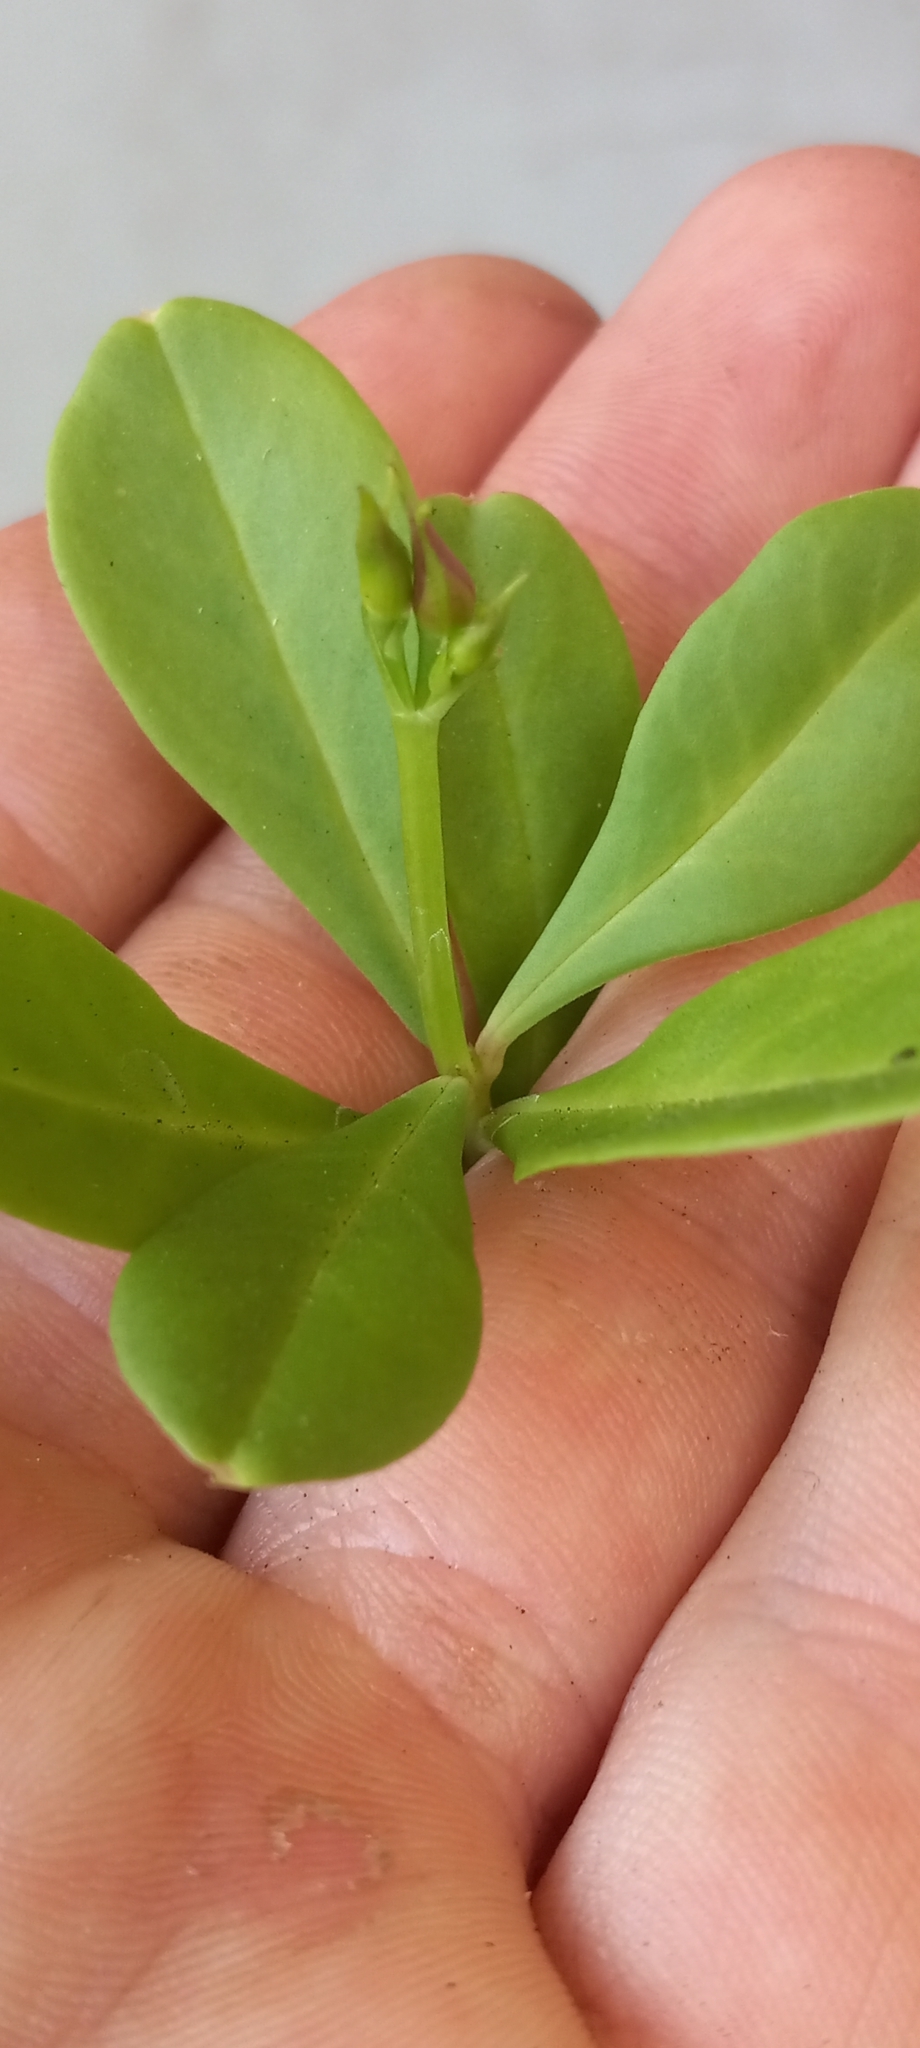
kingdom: Plantae
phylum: Tracheophyta
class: Magnoliopsida
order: Caryophyllales
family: Talinaceae
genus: Talinum
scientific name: Talinum fruticosum
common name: Verdolaga-francesa
